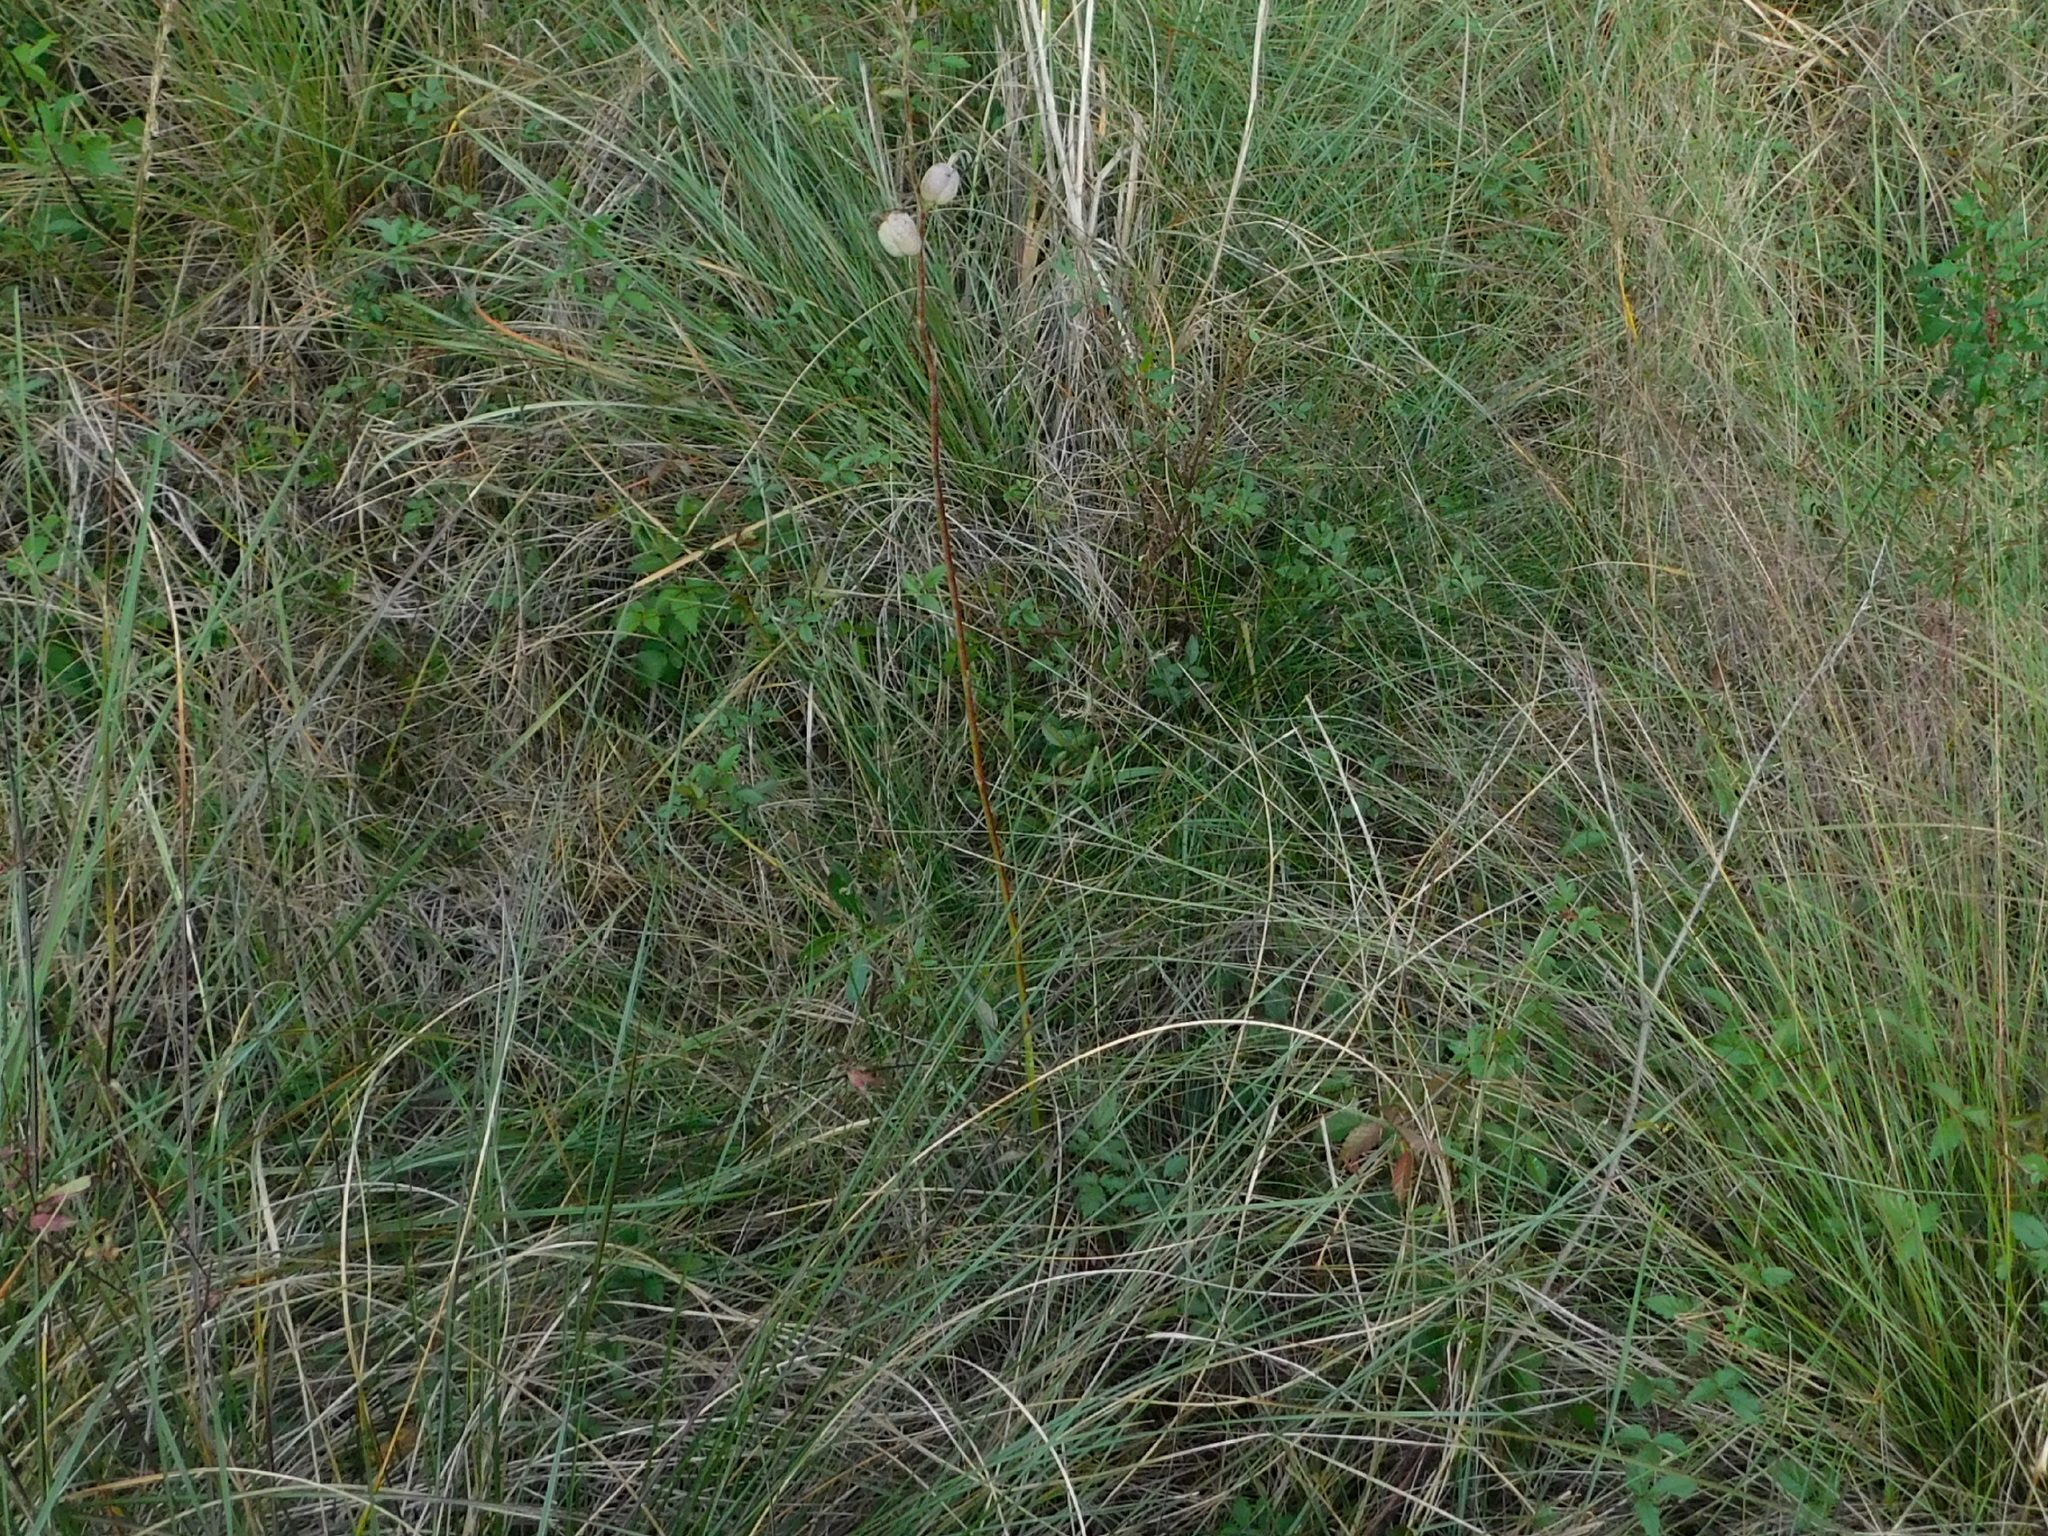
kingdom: Plantae
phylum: Tracheophyta
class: Liliopsida
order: Asparagales
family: Asparagaceae
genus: Agave
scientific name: Agave virginica
